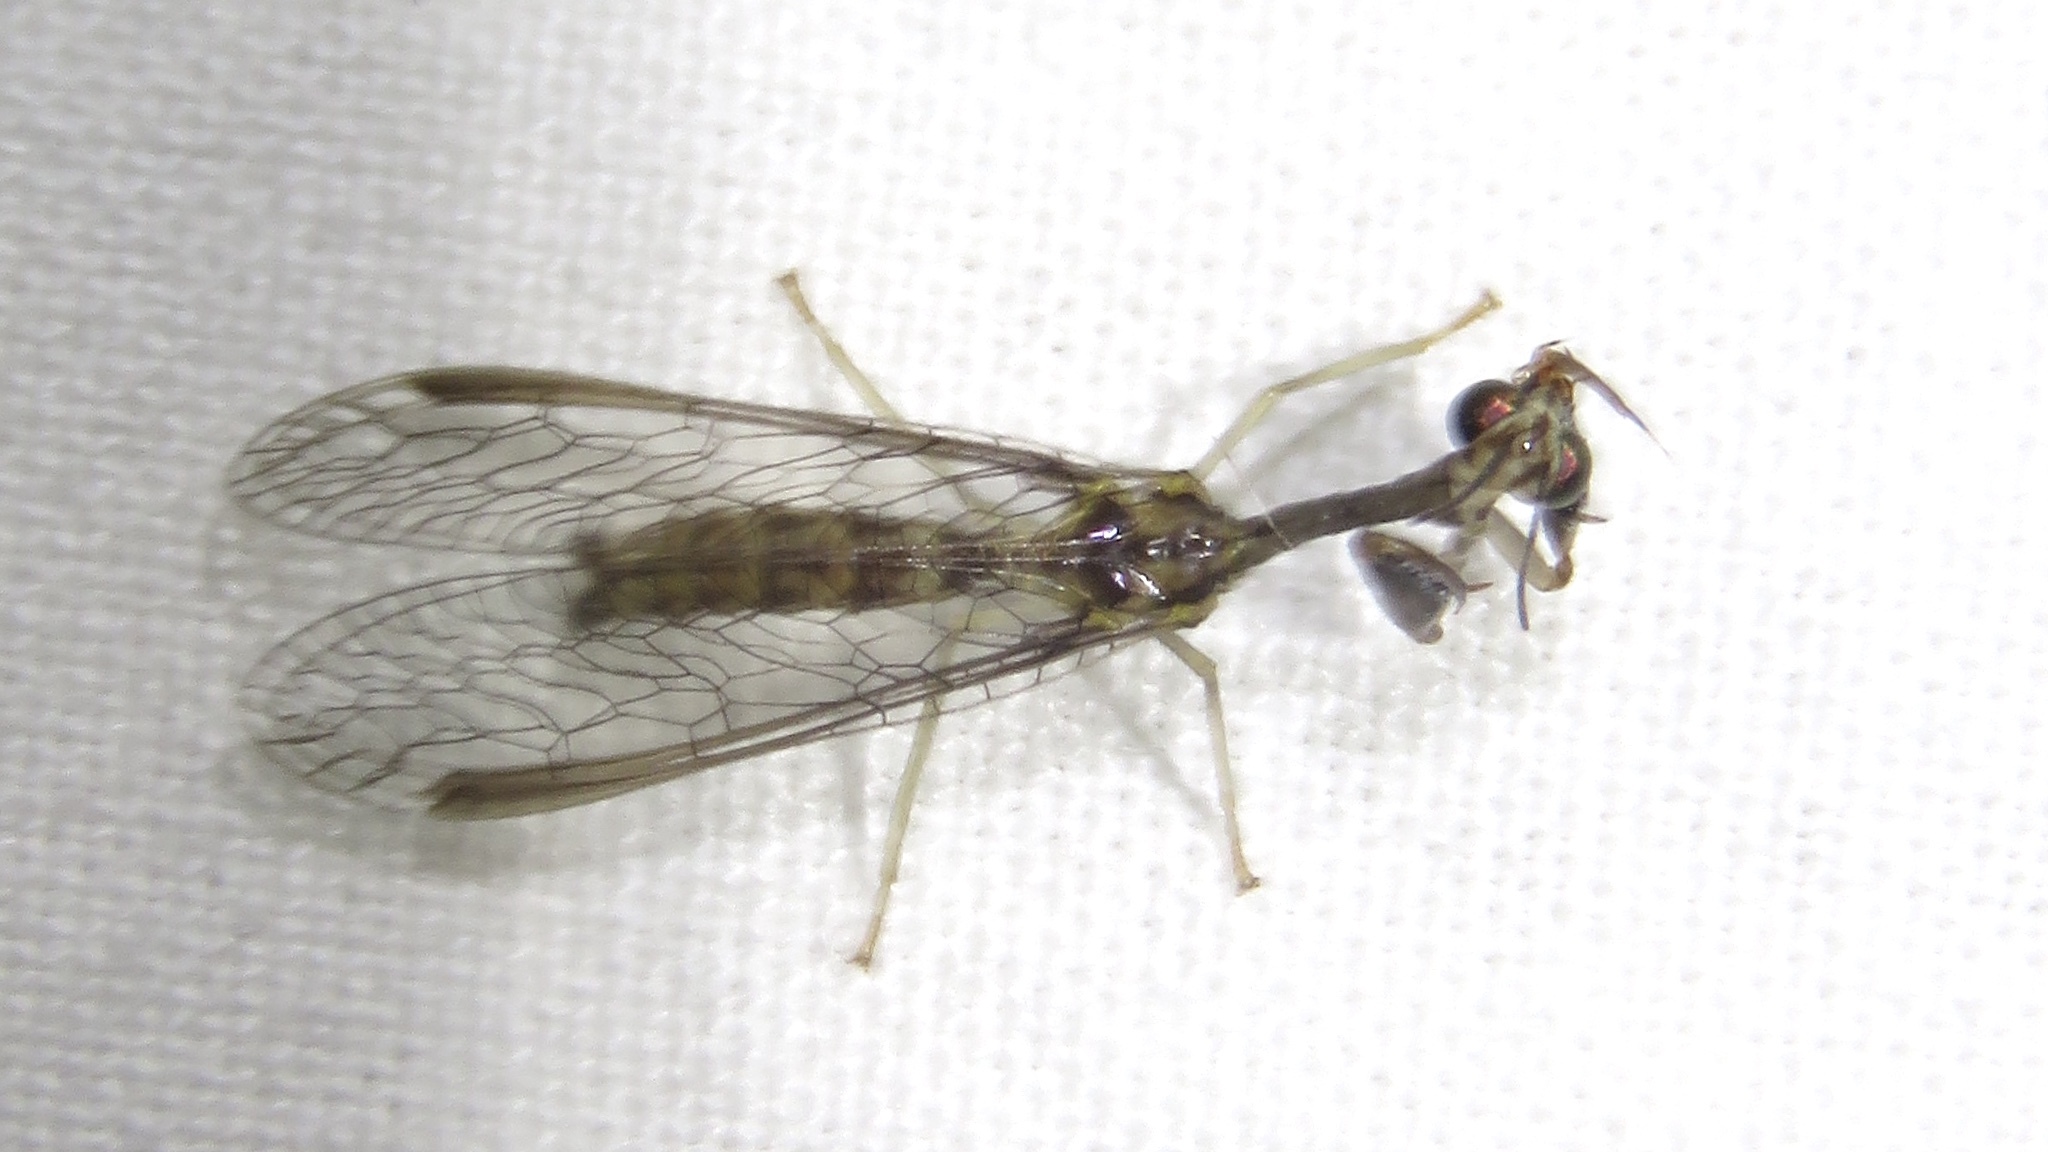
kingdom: Animalia
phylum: Arthropoda
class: Insecta
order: Neuroptera
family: Mantispidae
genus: Leptomantispa
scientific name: Leptomantispa pulchella
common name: Stevens's mantidfly
